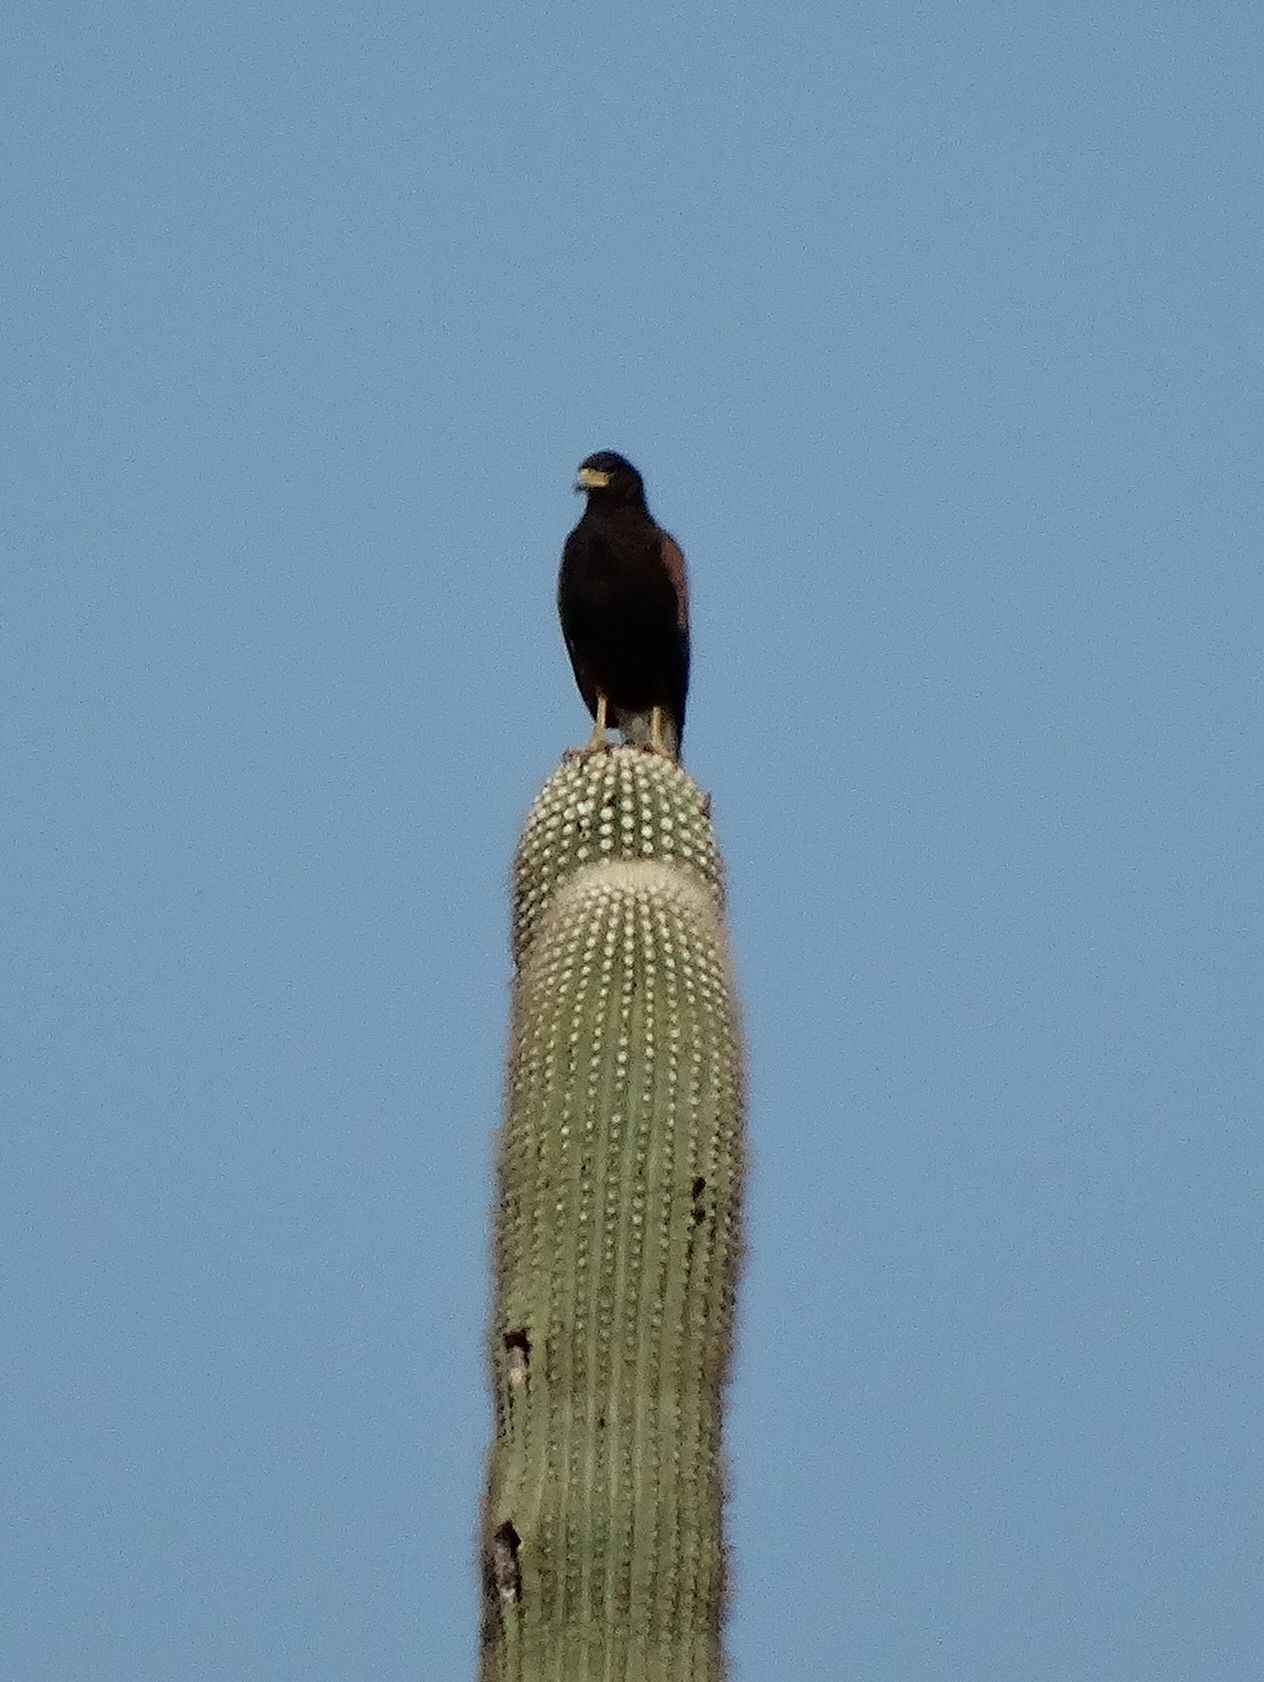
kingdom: Animalia
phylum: Chordata
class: Aves
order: Accipitriformes
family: Accipitridae
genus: Parabuteo
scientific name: Parabuteo unicinctus
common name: Harris's hawk
